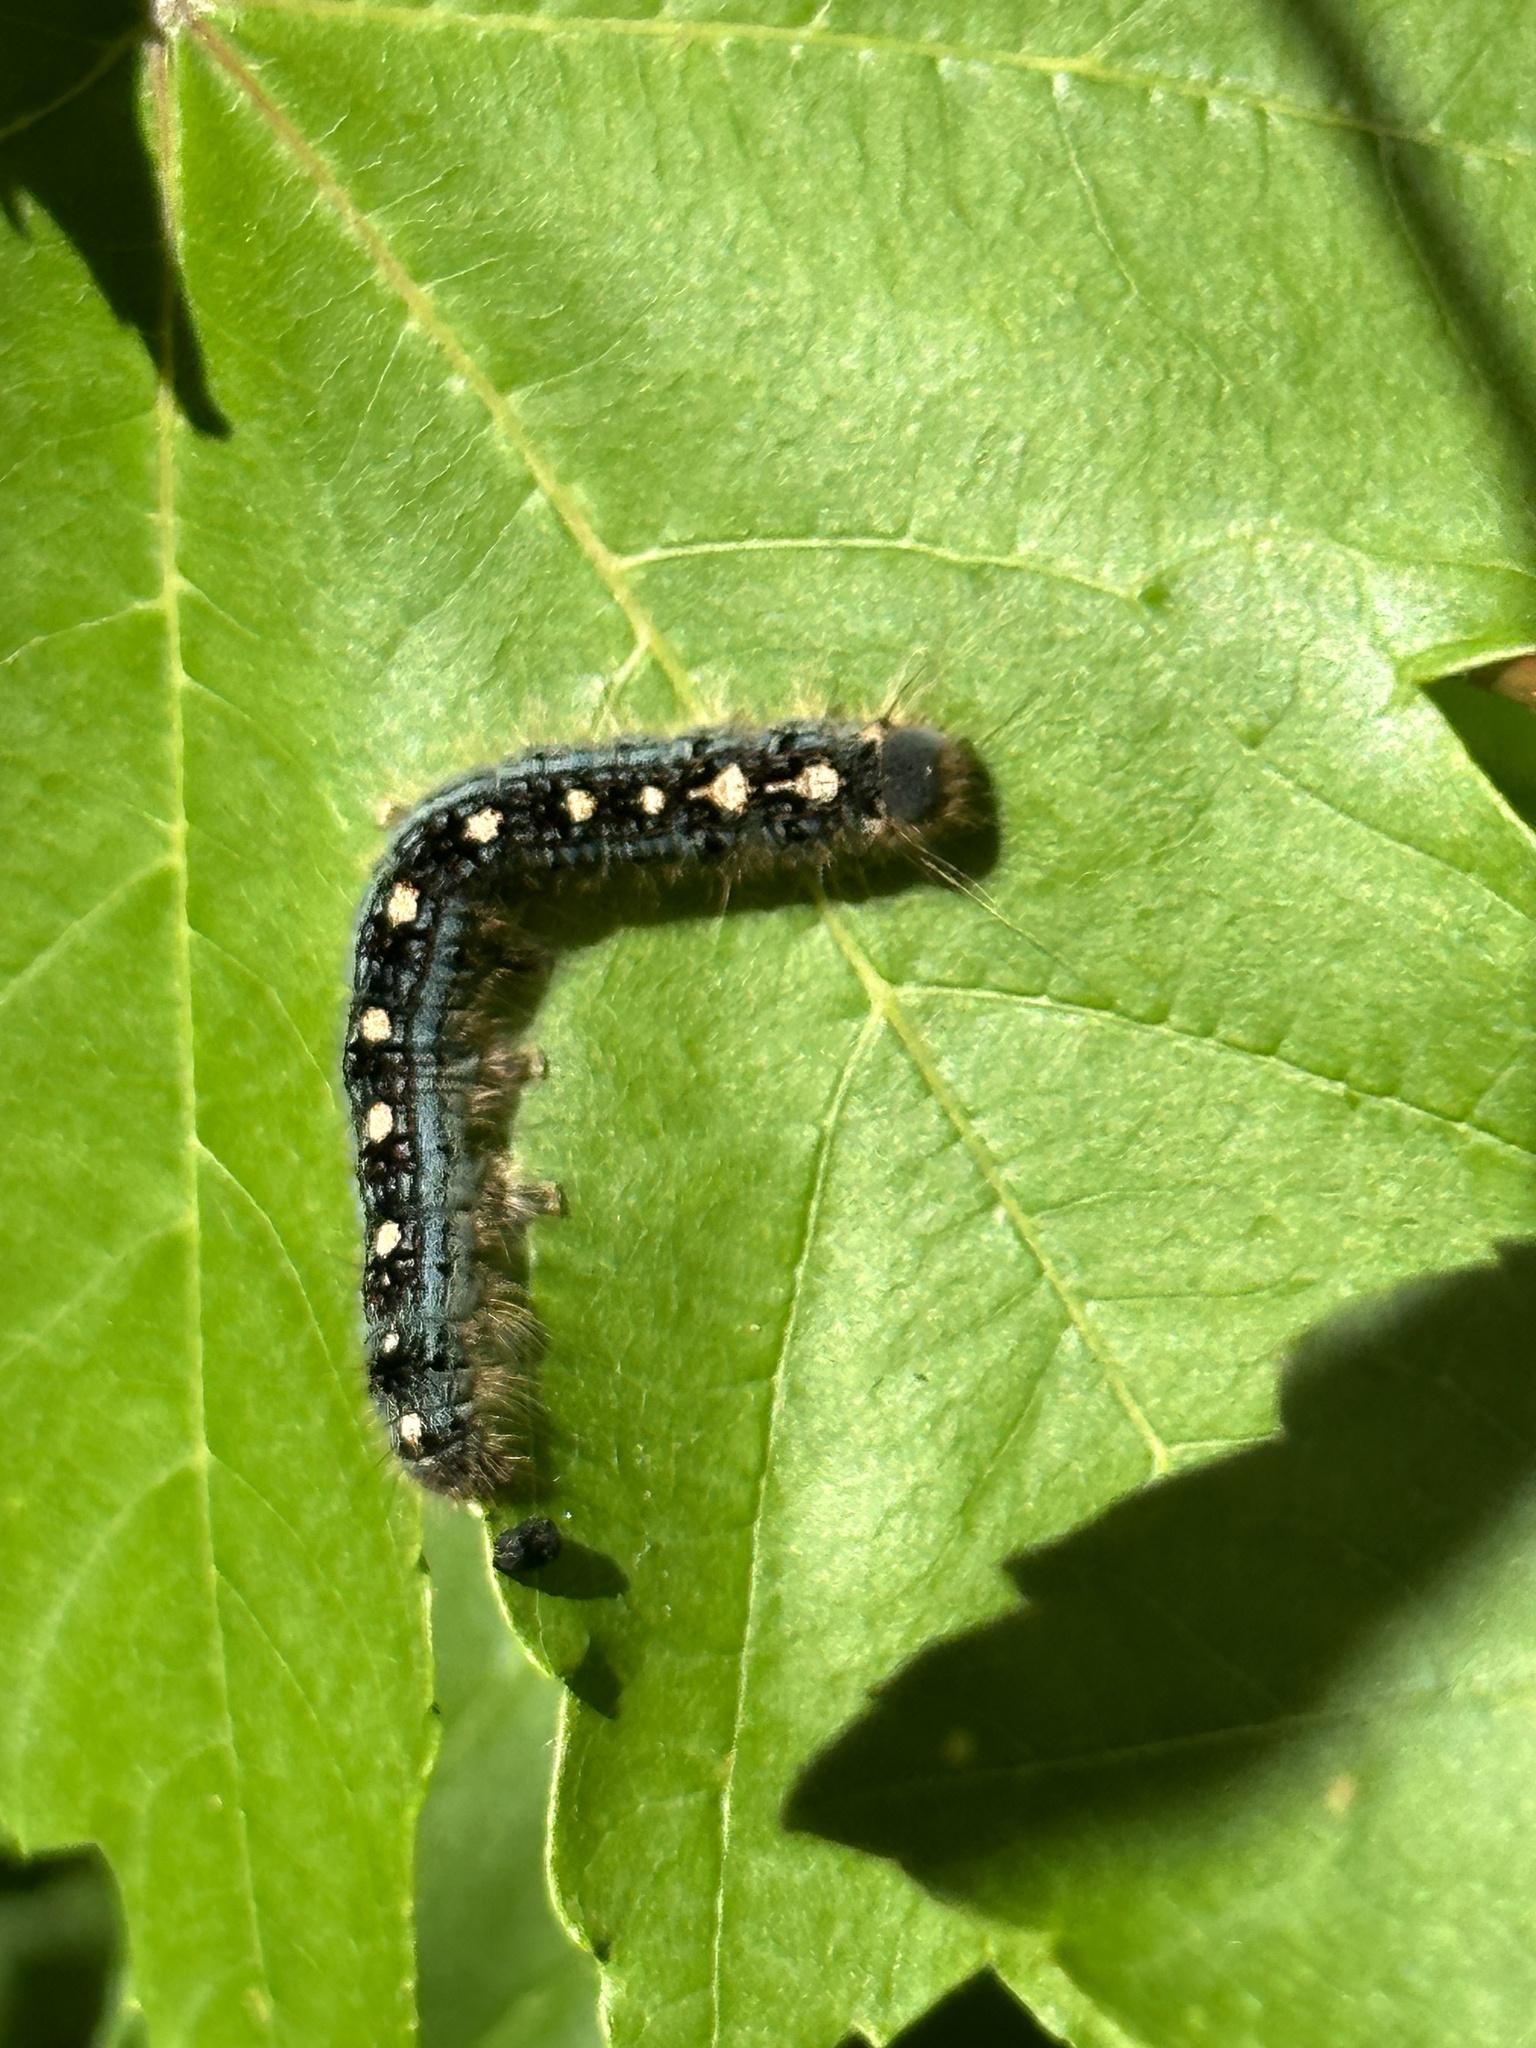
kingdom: Animalia
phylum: Arthropoda
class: Insecta
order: Lepidoptera
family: Lasiocampidae
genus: Malacosoma
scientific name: Malacosoma disstria
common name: Forest tent caterpillar
